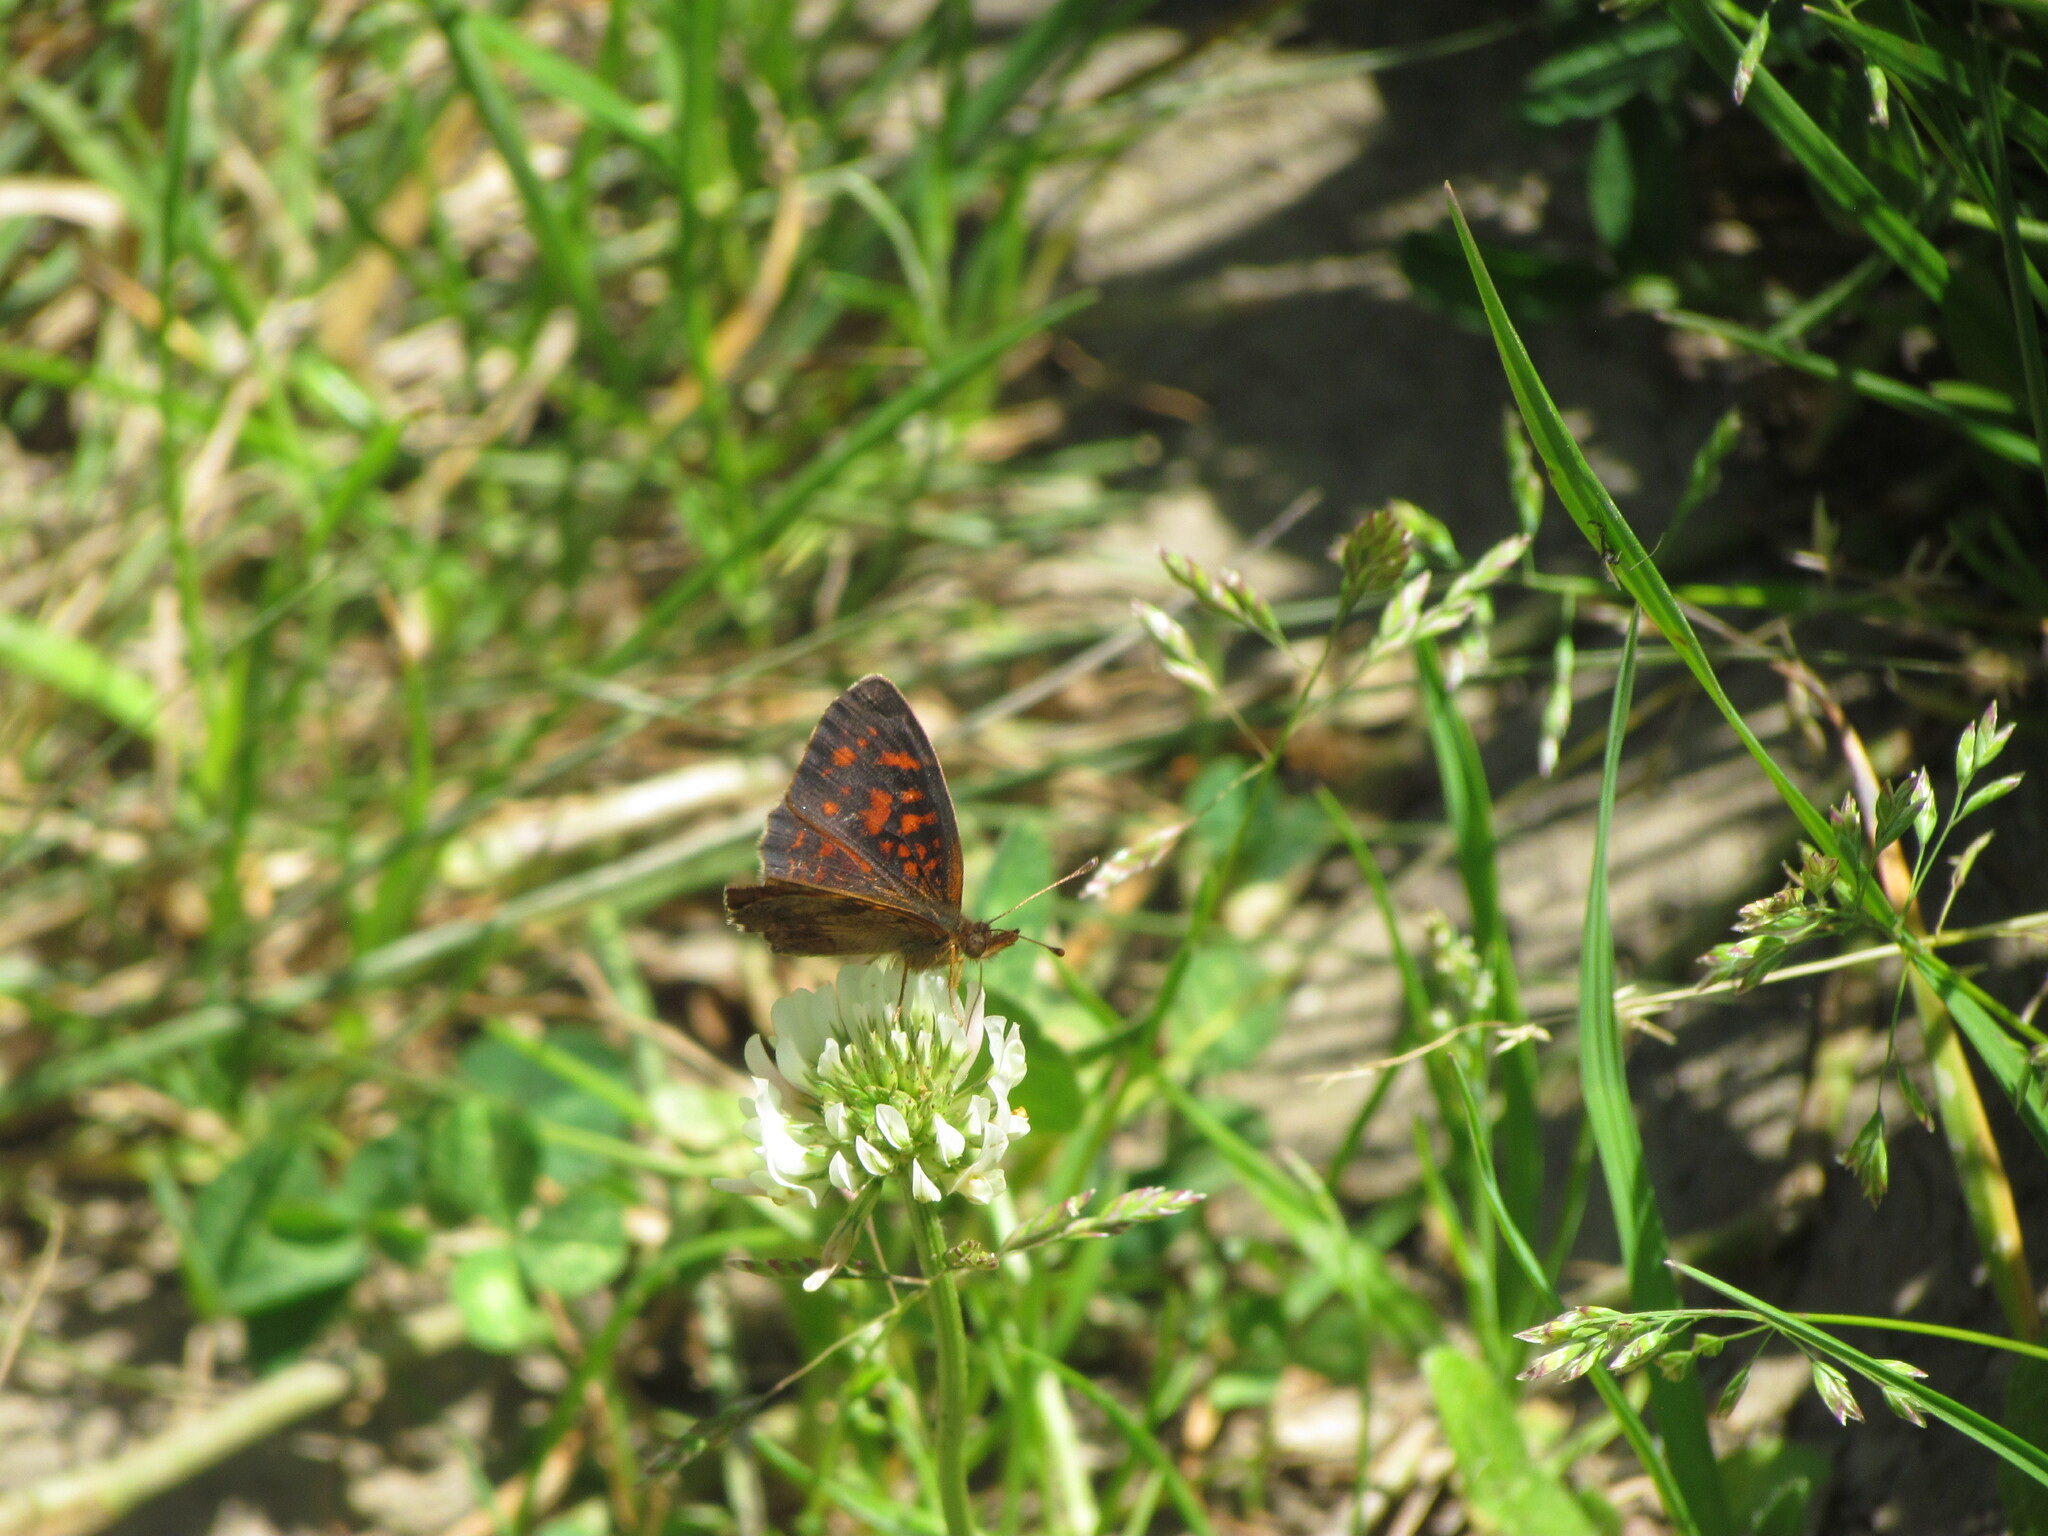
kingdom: Animalia
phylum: Arthropoda
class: Insecta
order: Lepidoptera
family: Nymphalidae
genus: Ortilia
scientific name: Ortilia velica
